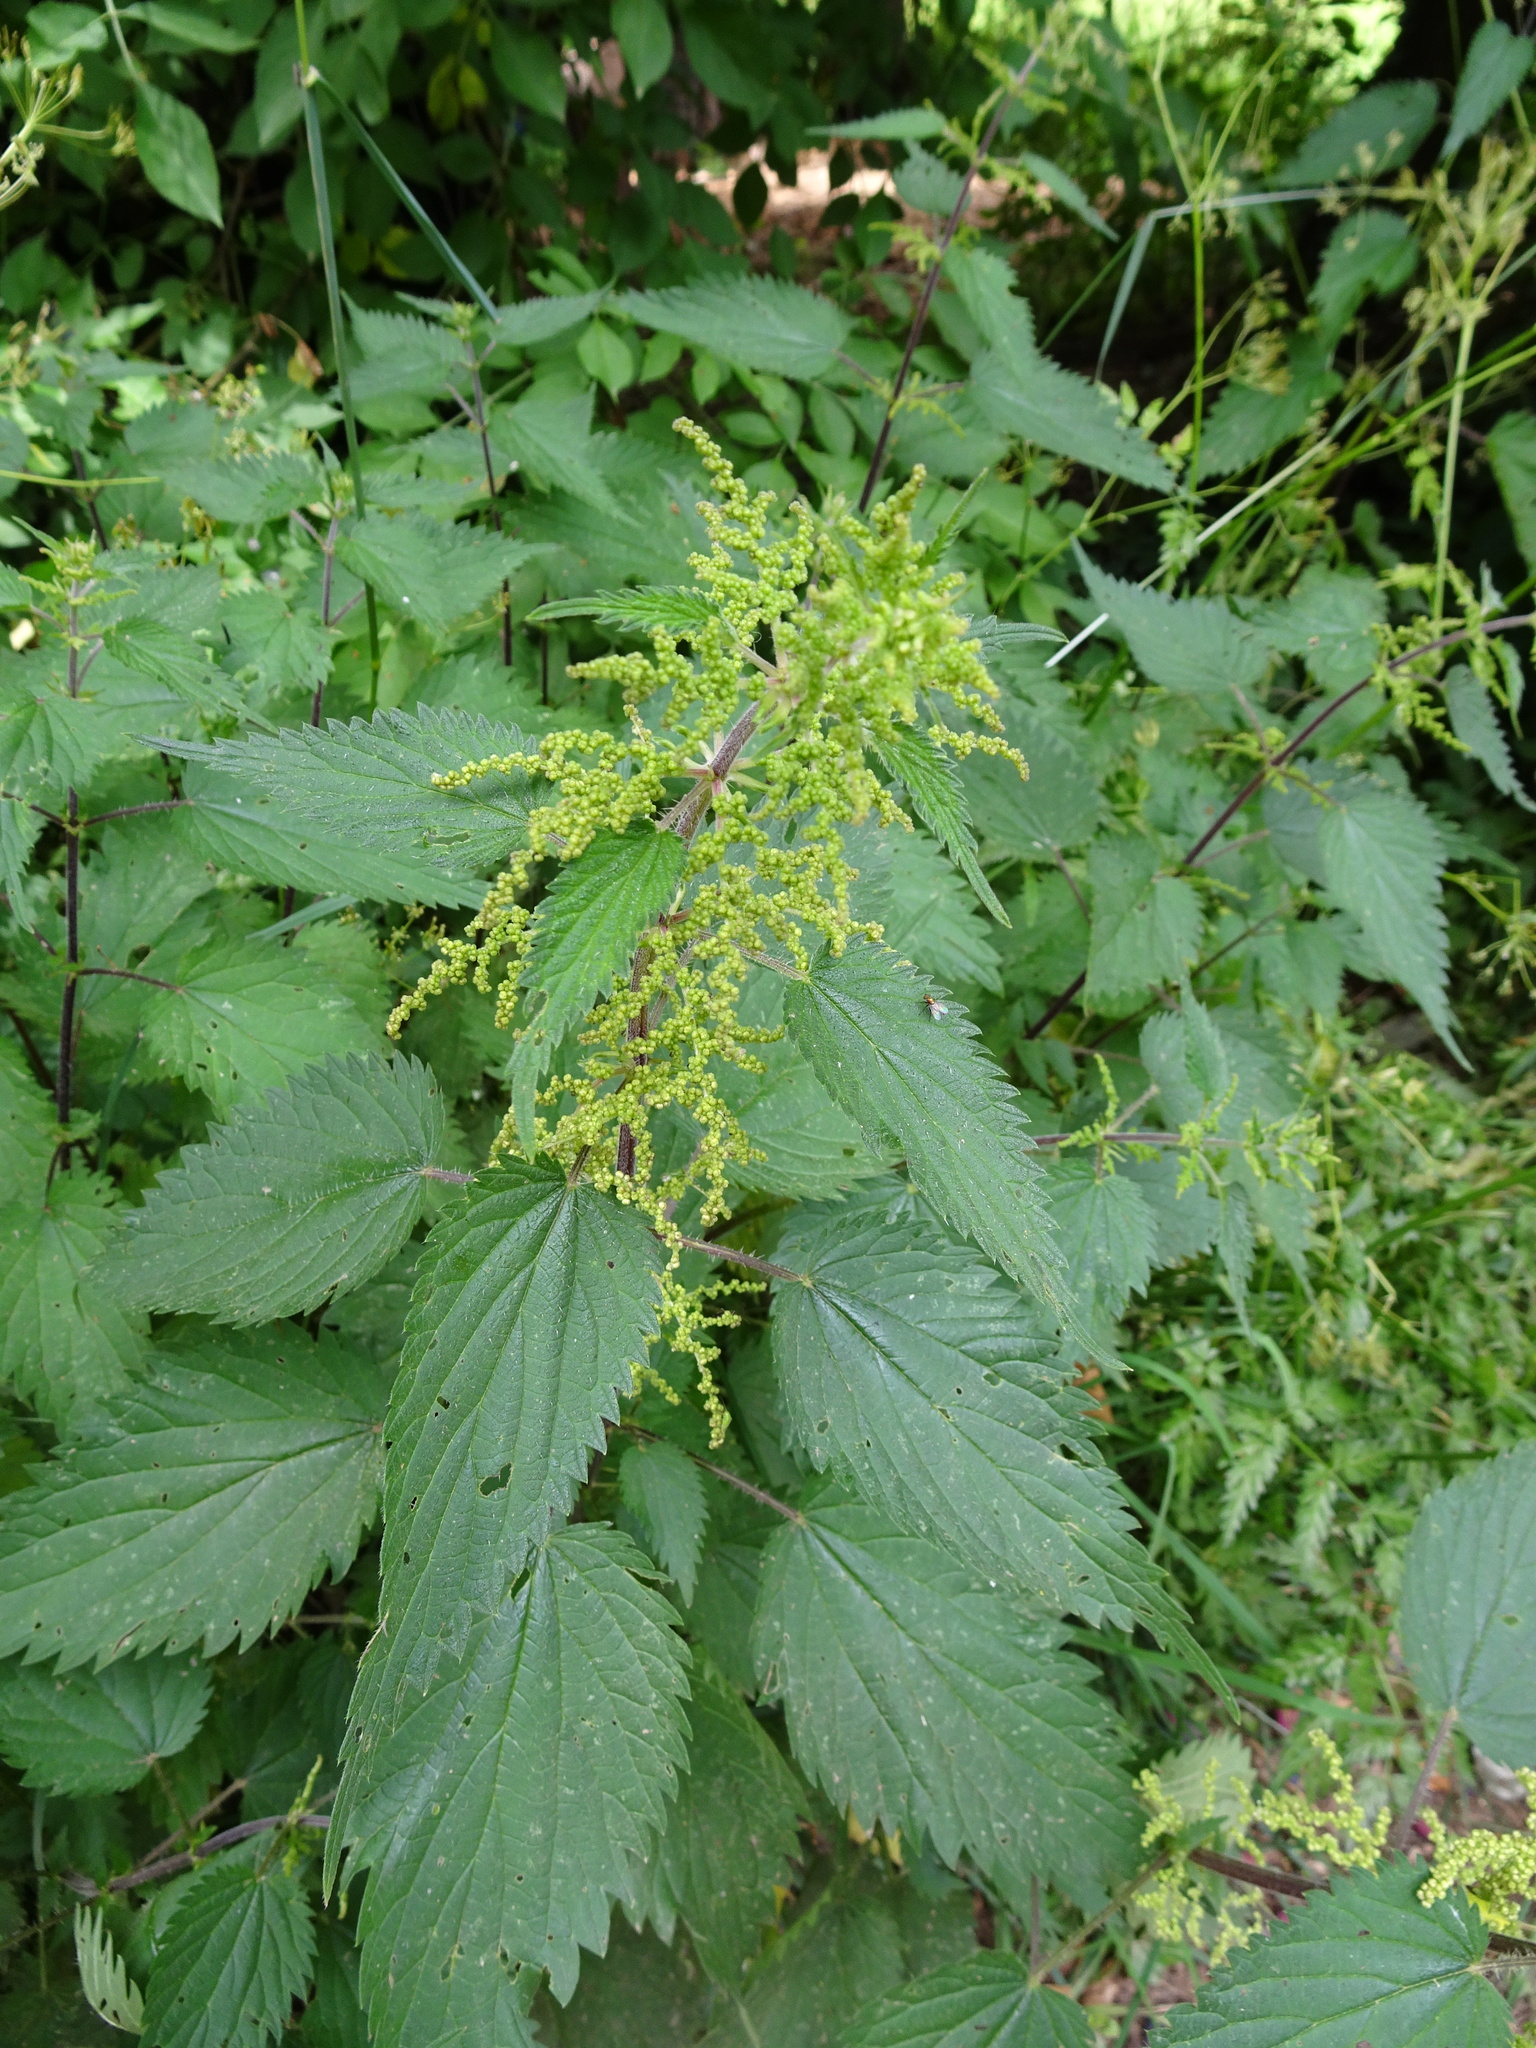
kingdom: Plantae
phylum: Tracheophyta
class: Magnoliopsida
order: Rosales
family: Urticaceae
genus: Urtica
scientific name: Urtica dioica
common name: Common nettle
